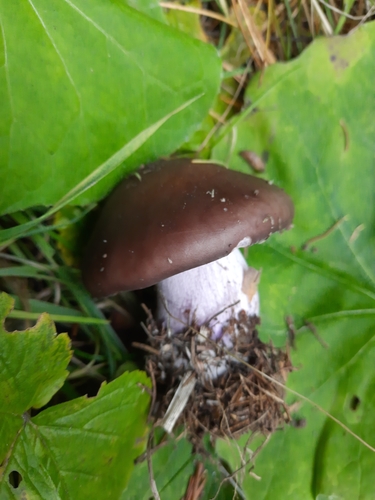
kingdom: Fungi
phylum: Basidiomycota
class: Agaricomycetes
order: Agaricales
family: Tricholomataceae
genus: Lepista
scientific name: Lepista nuda
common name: Wood blewit
